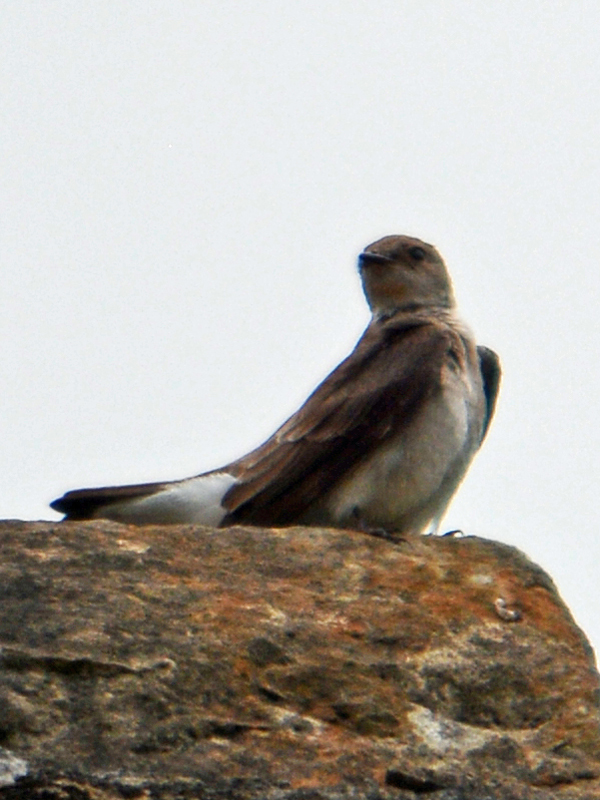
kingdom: Animalia
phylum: Chordata
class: Aves
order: Passeriformes
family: Hirundinidae
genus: Stelgidopteryx
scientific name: Stelgidopteryx serripennis
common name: Northern rough-winged swallow
